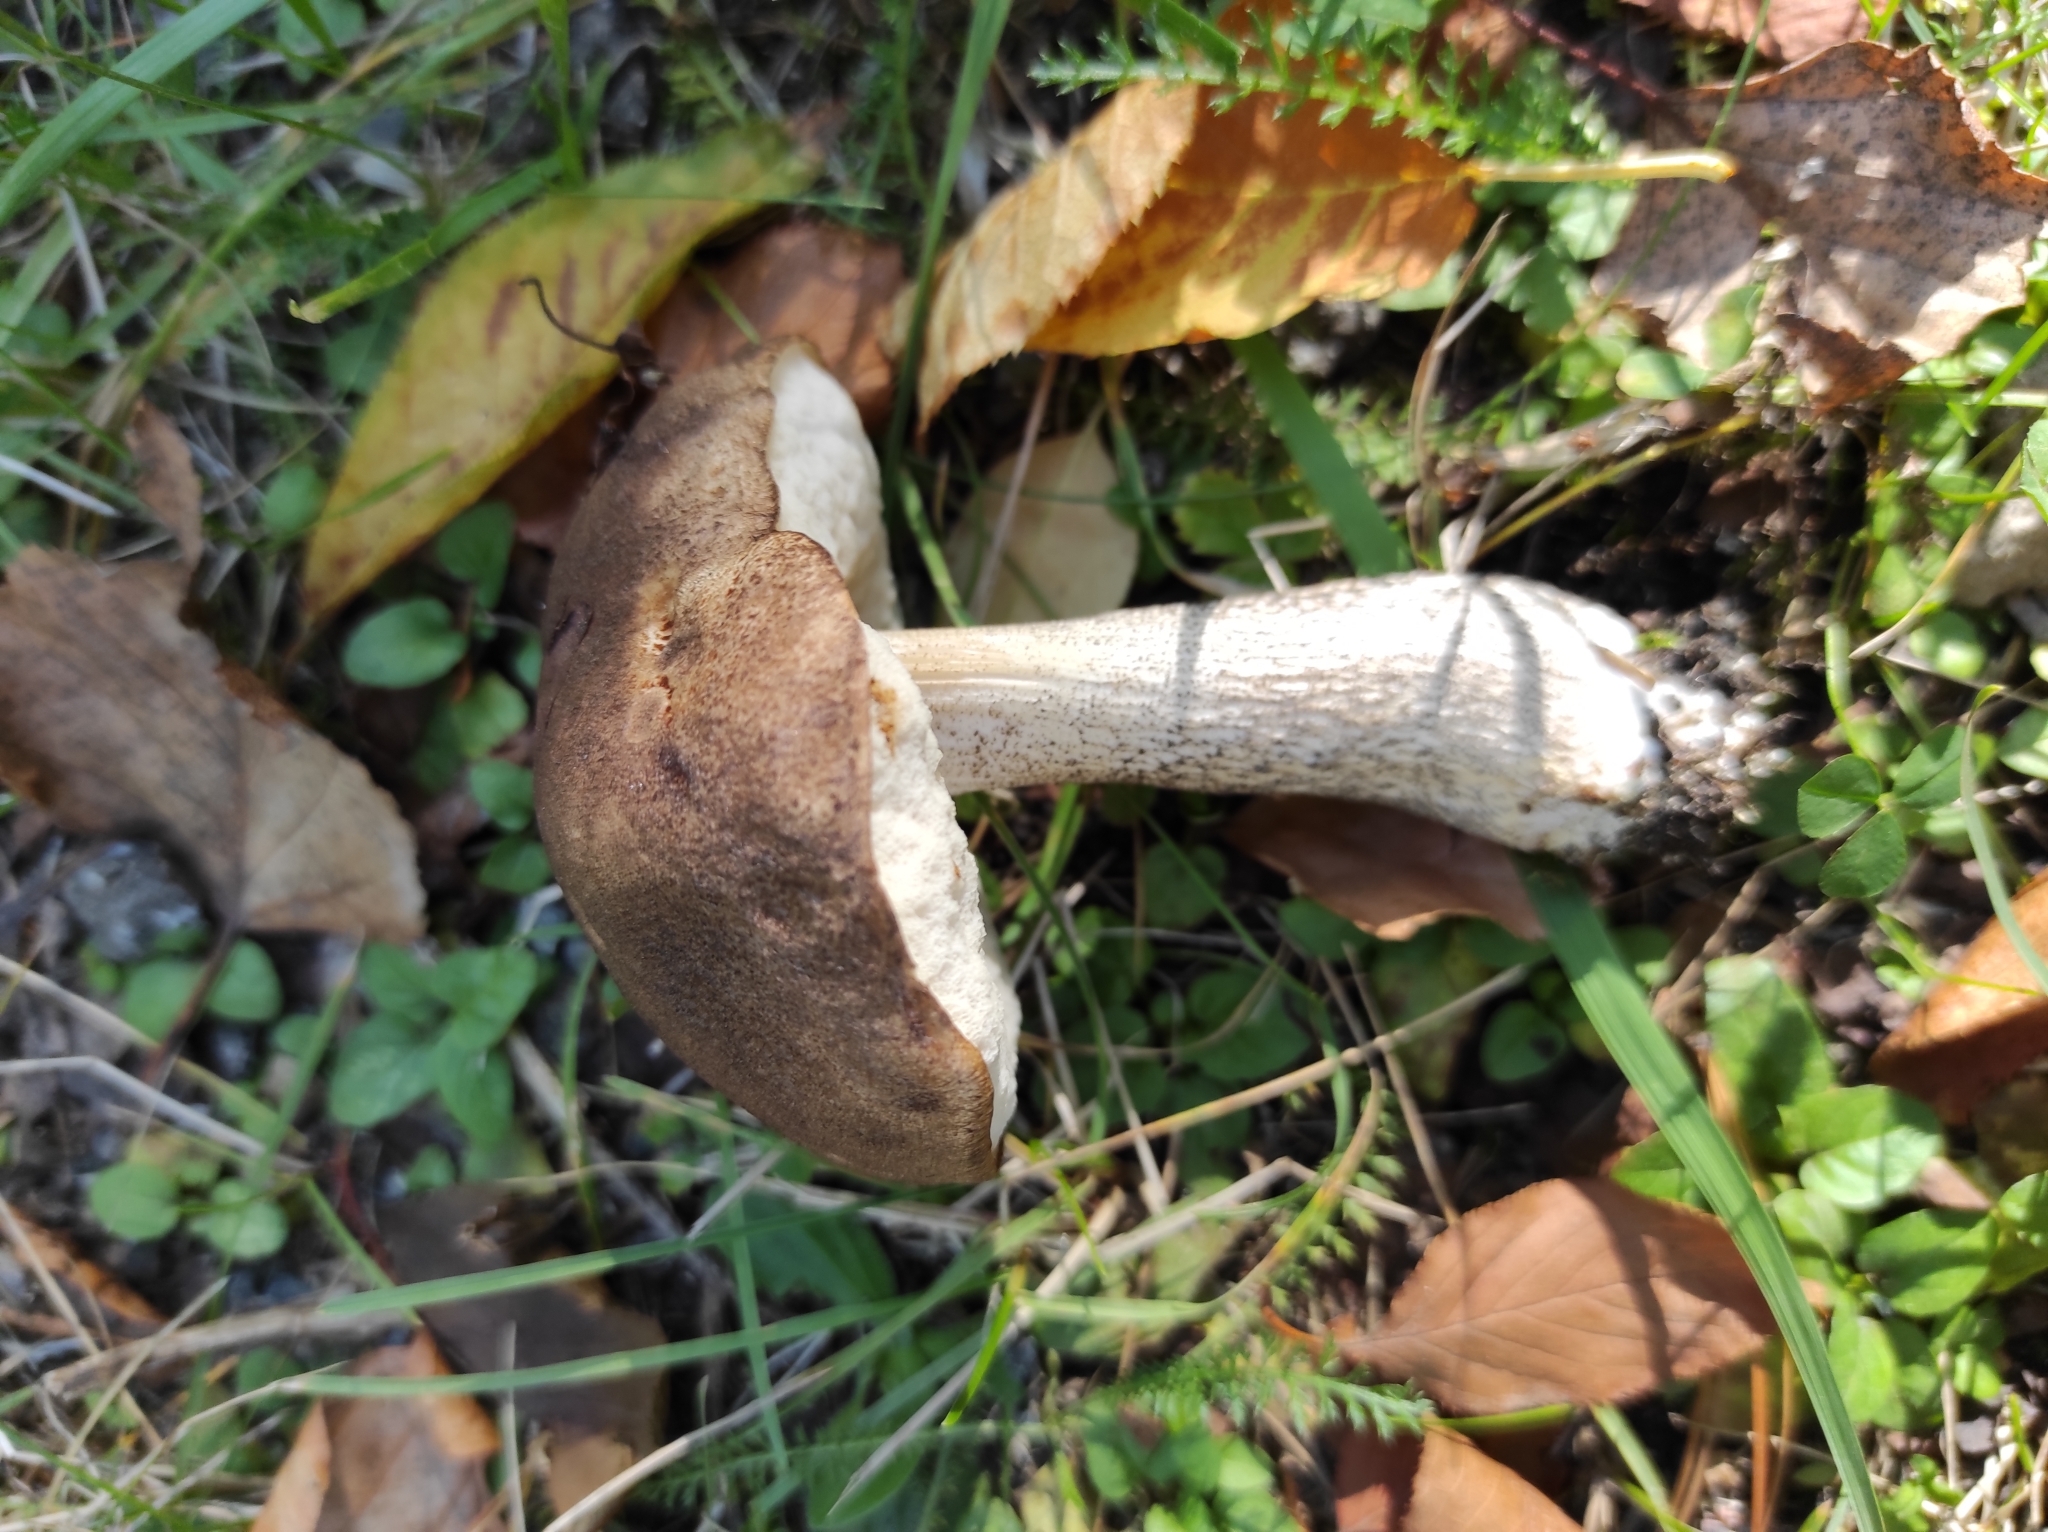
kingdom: Fungi
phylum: Basidiomycota
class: Agaricomycetes
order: Boletales
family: Boletaceae
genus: Leccinum
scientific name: Leccinum scabrum
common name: Blushing bolete
